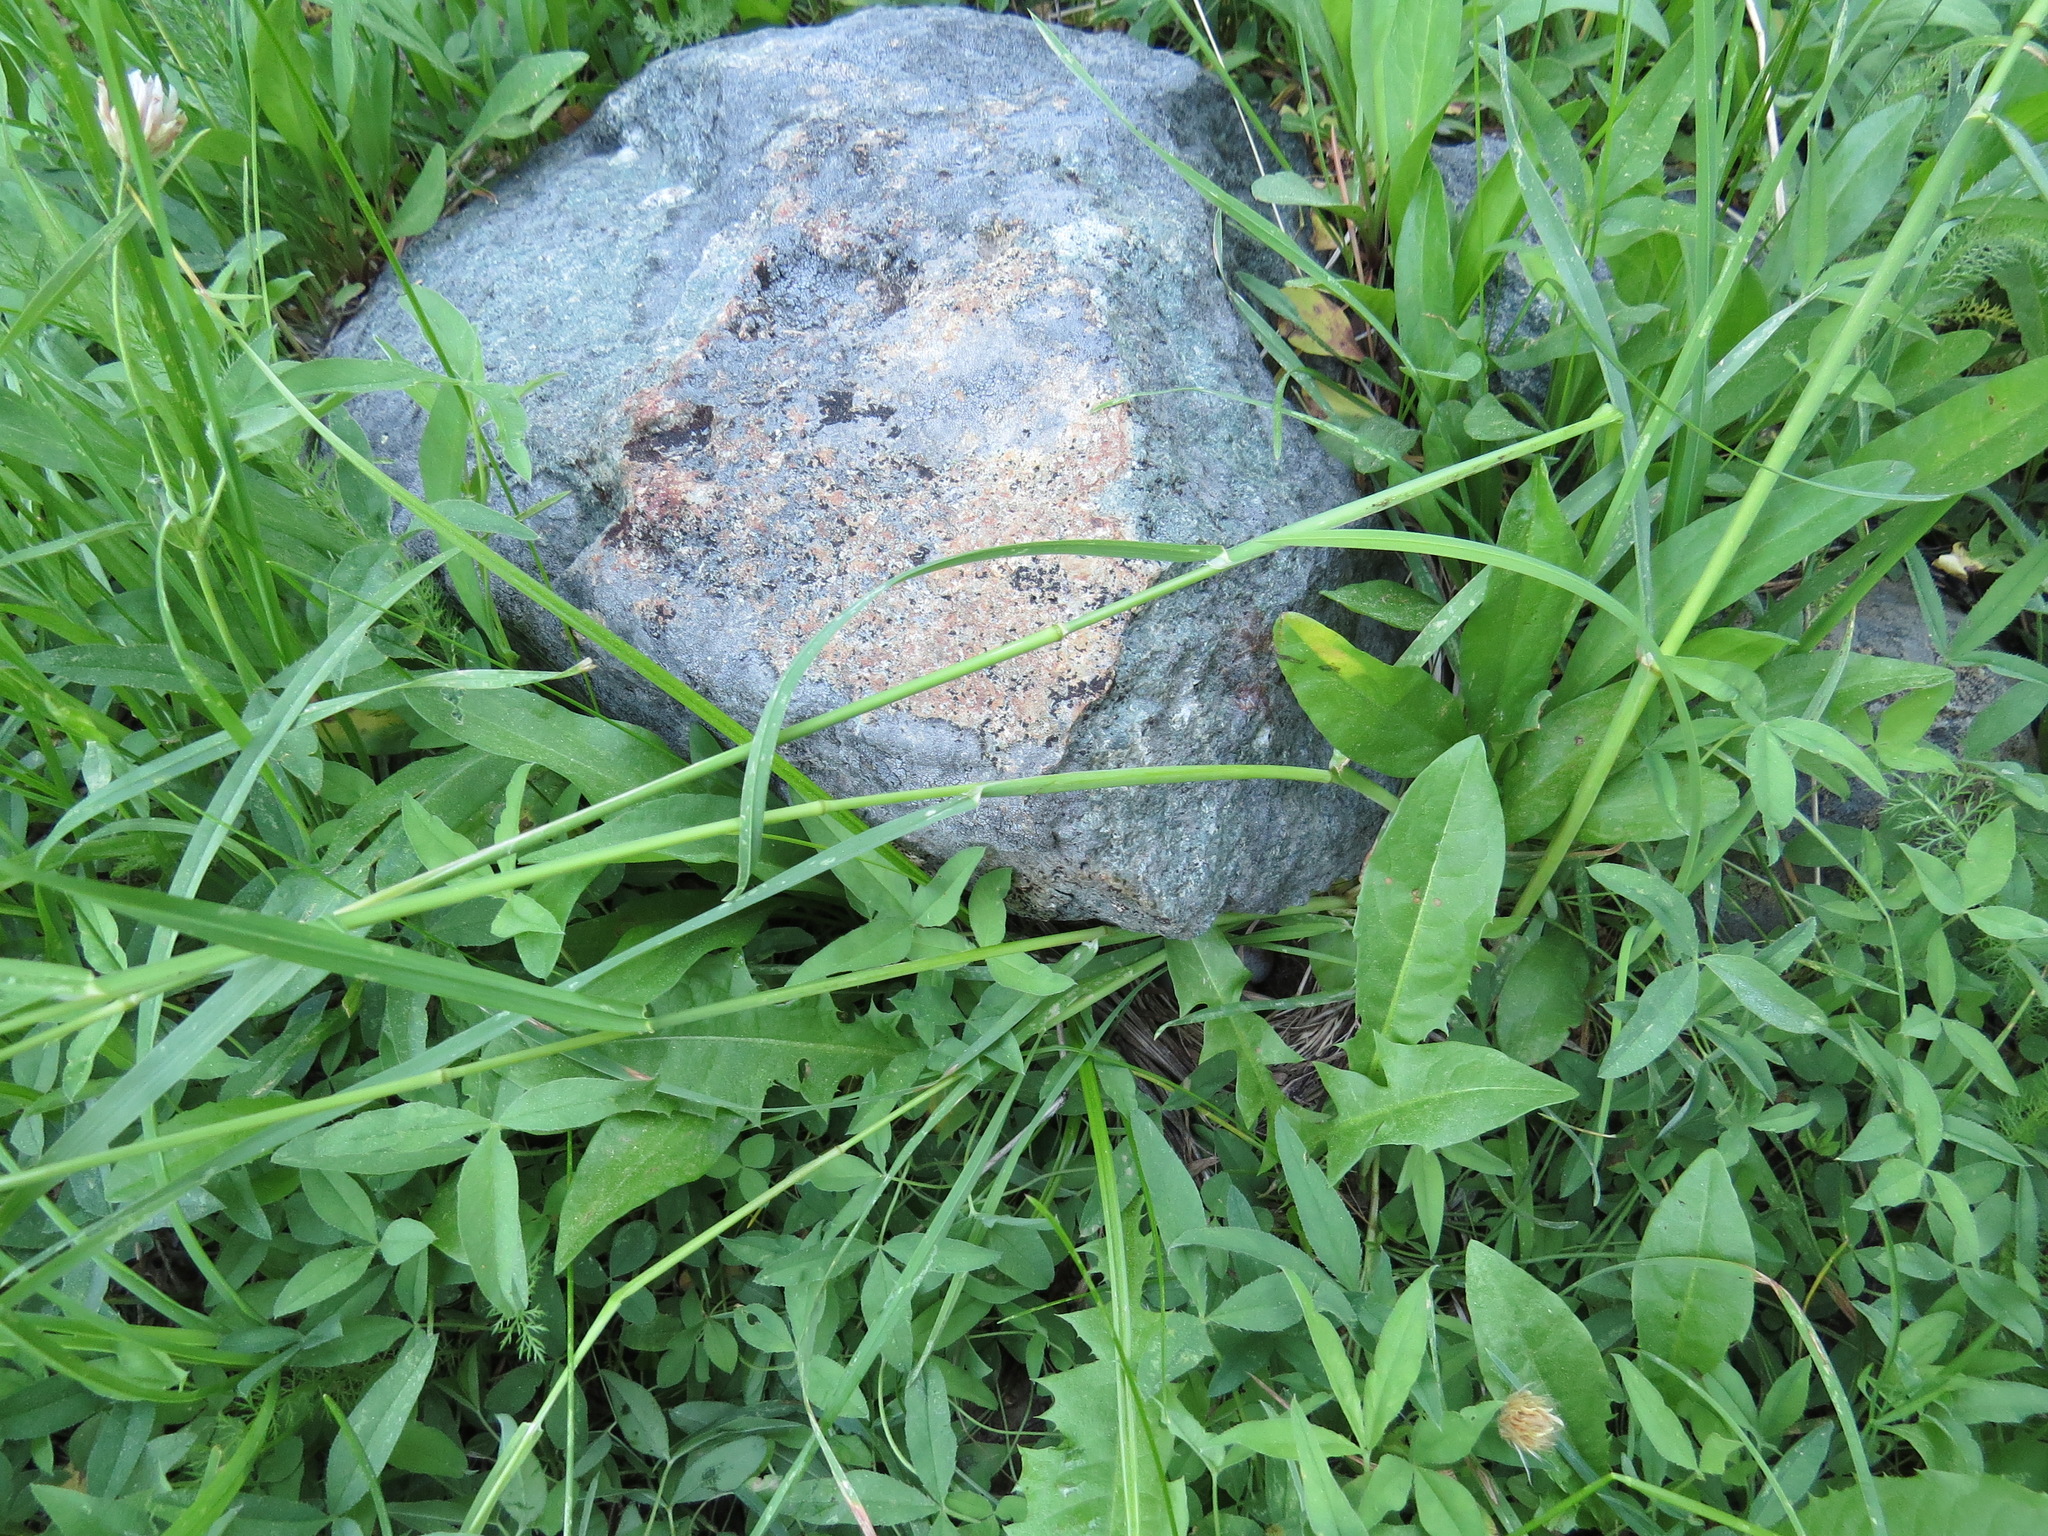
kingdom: Animalia
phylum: Chordata
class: Aves
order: Passeriformes
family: Passerellidae
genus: Junco
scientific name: Junco hyemalis
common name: Dark-eyed junco
